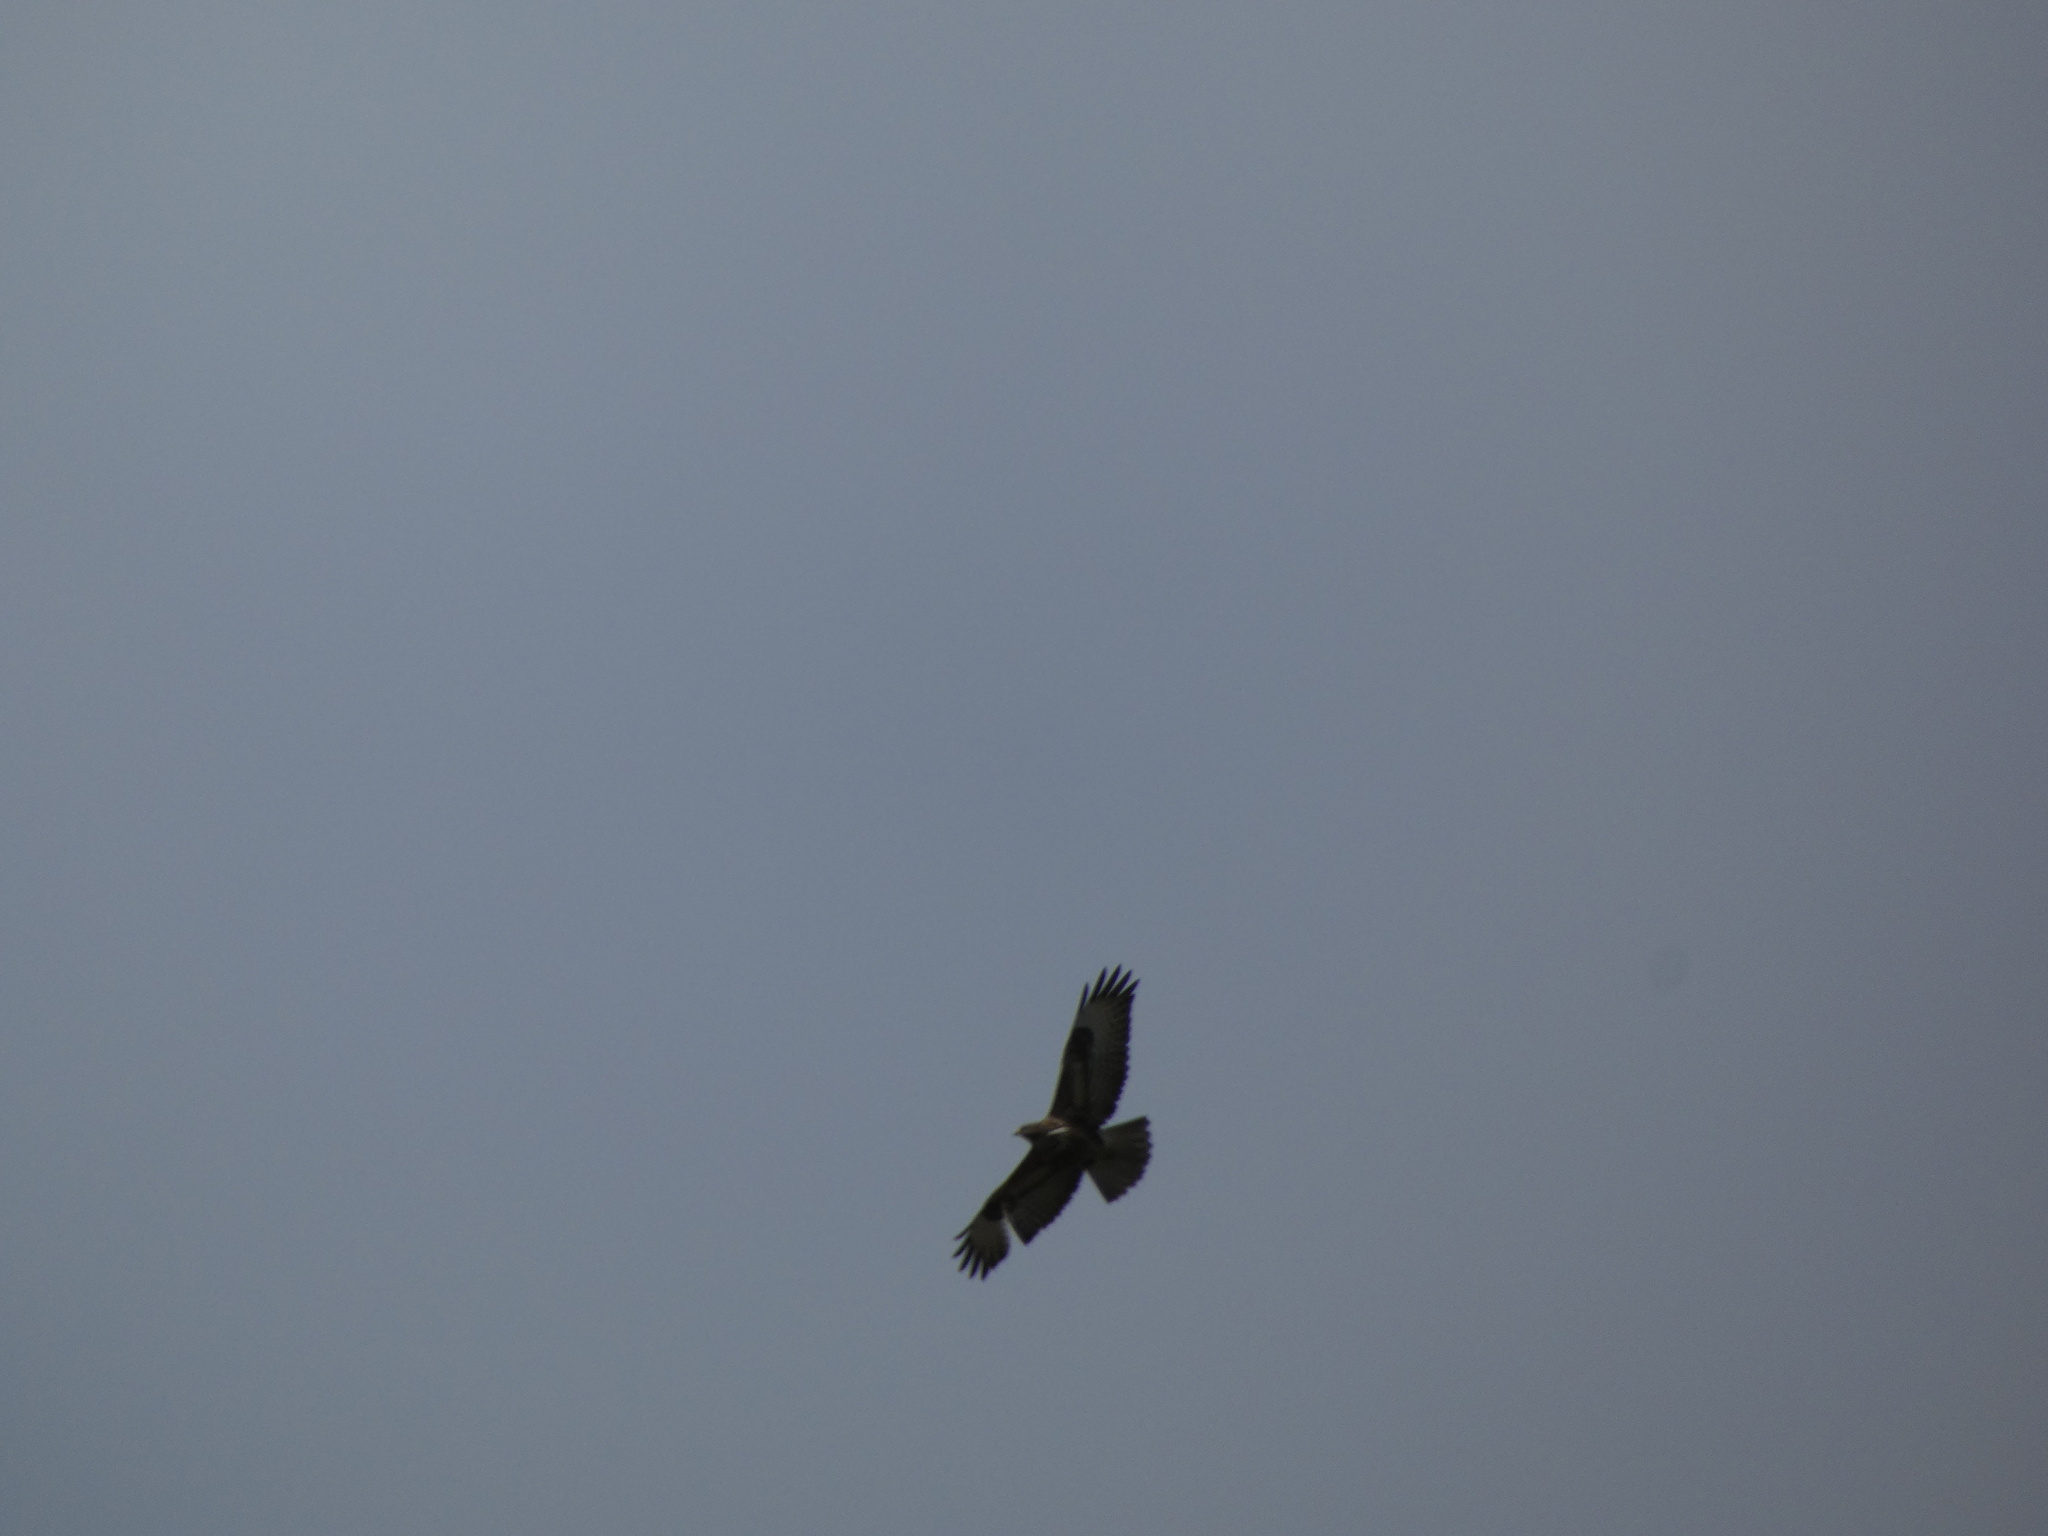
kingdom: Animalia
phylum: Chordata
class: Aves
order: Accipitriformes
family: Accipitridae
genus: Buteo
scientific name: Buteo buteo
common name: Common buzzard
